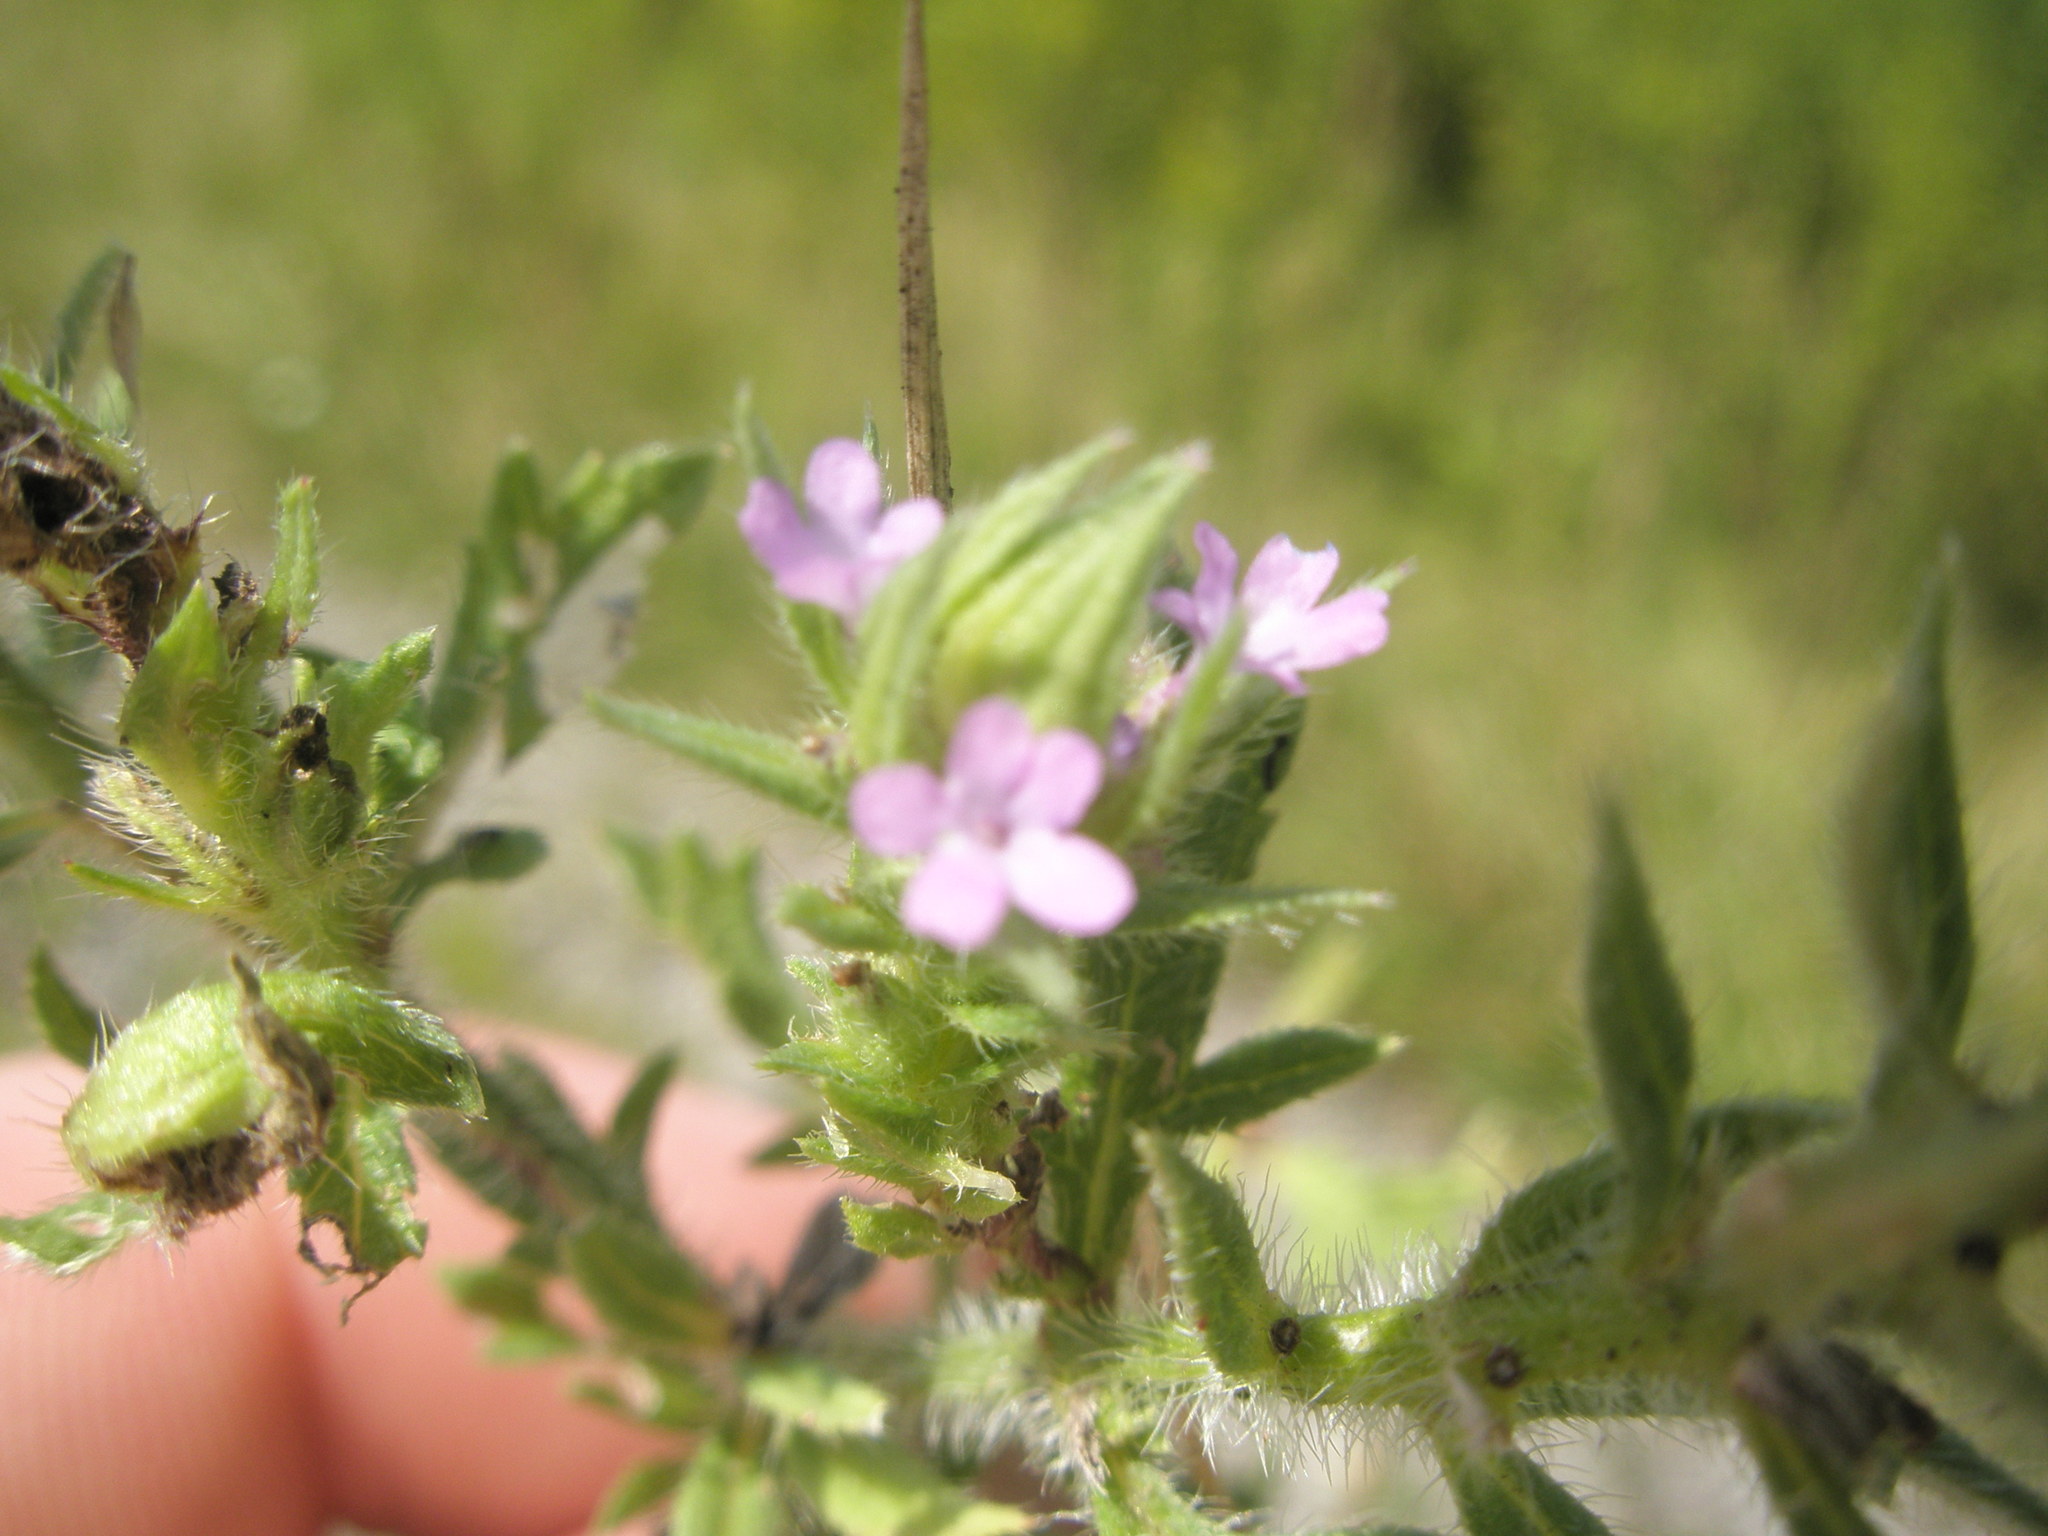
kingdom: Plantae
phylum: Tracheophyta
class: Magnoliopsida
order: Lamiales
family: Verbenaceae
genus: Verbena
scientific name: Verbena bracteata
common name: Bracted vervain
